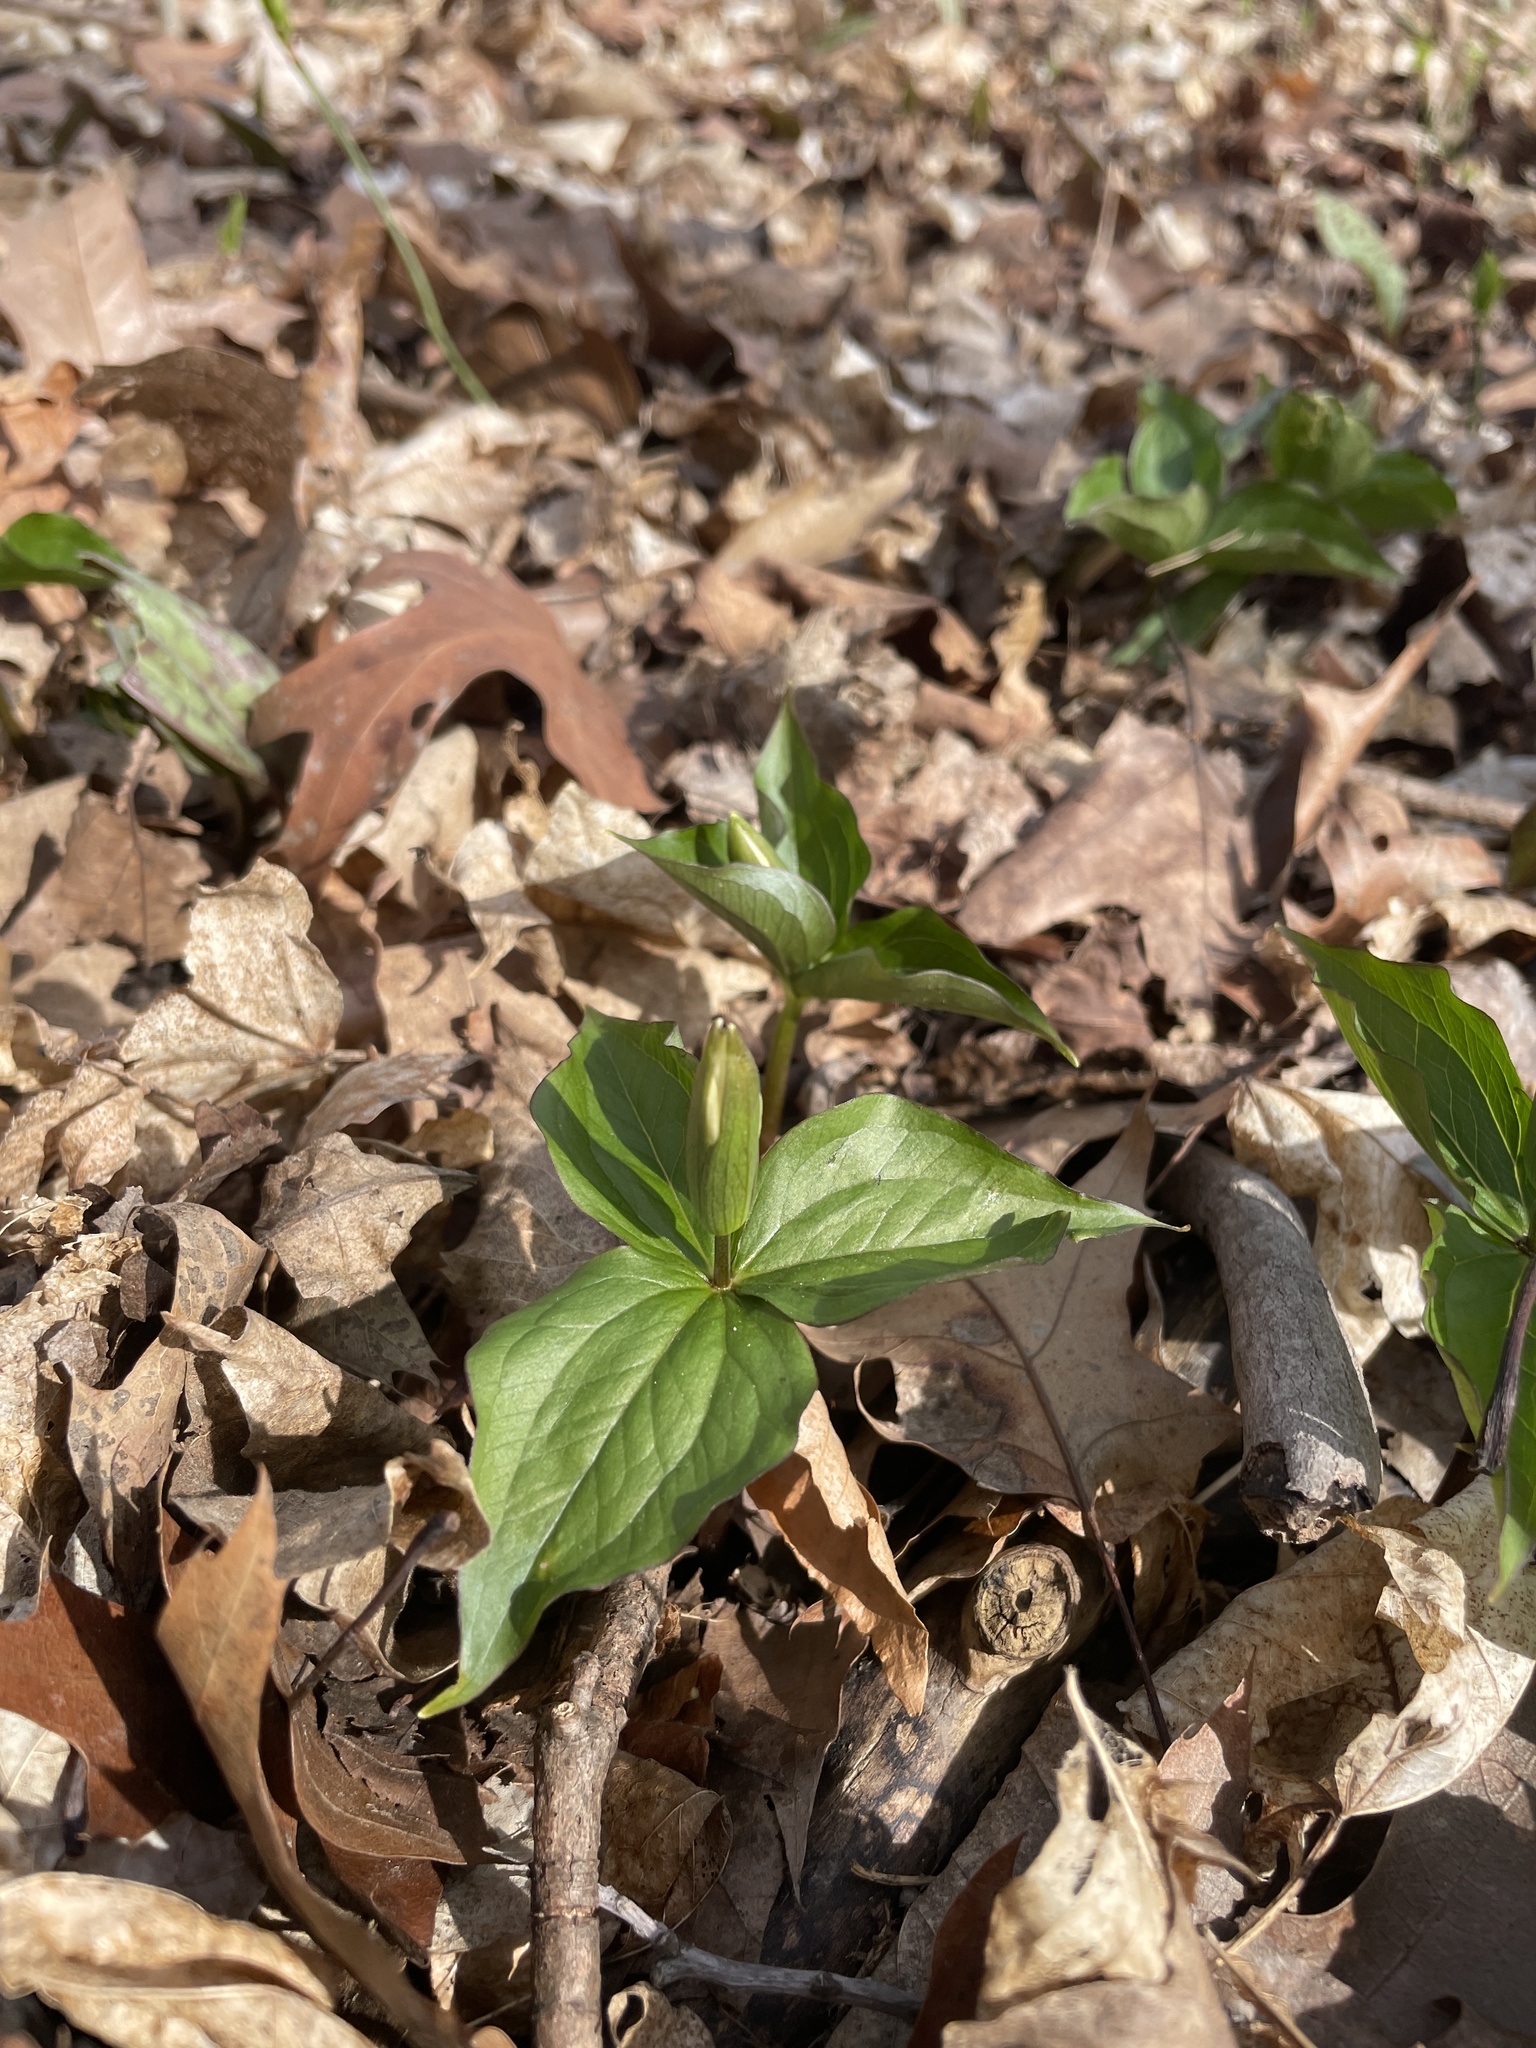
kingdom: Plantae
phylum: Tracheophyta
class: Liliopsida
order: Liliales
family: Melanthiaceae
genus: Trillium
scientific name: Trillium grandiflorum
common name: Great white trillium
